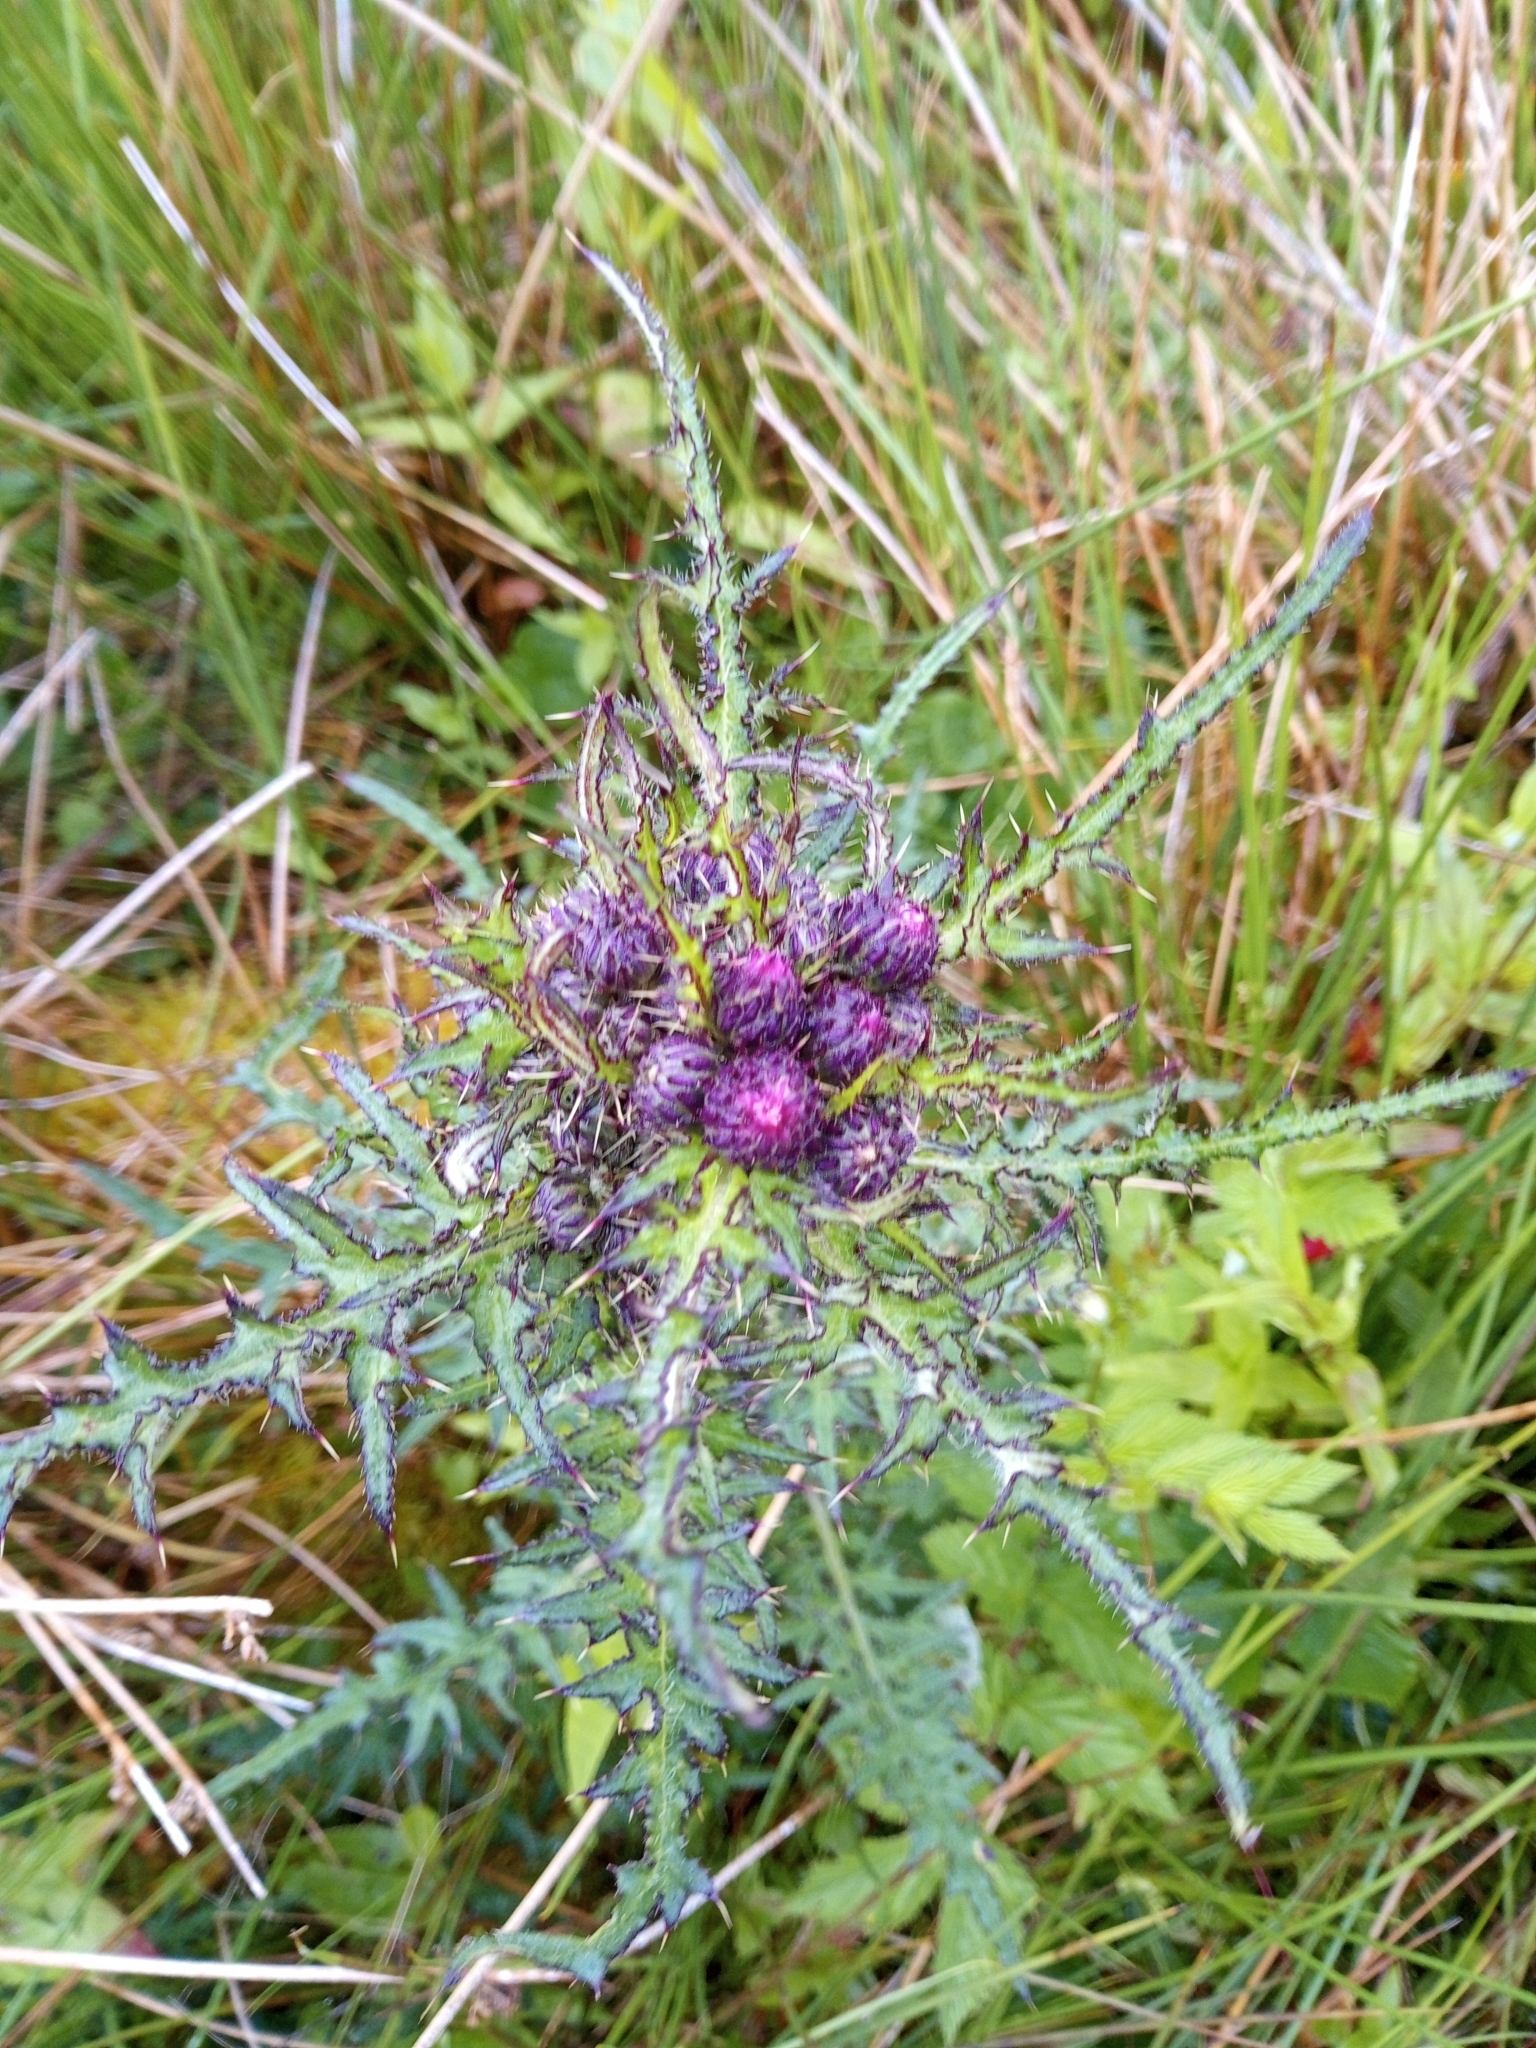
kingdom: Plantae
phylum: Tracheophyta
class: Magnoliopsida
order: Asterales
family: Asteraceae
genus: Cirsium
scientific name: Cirsium palustre
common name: Marsh thistle
